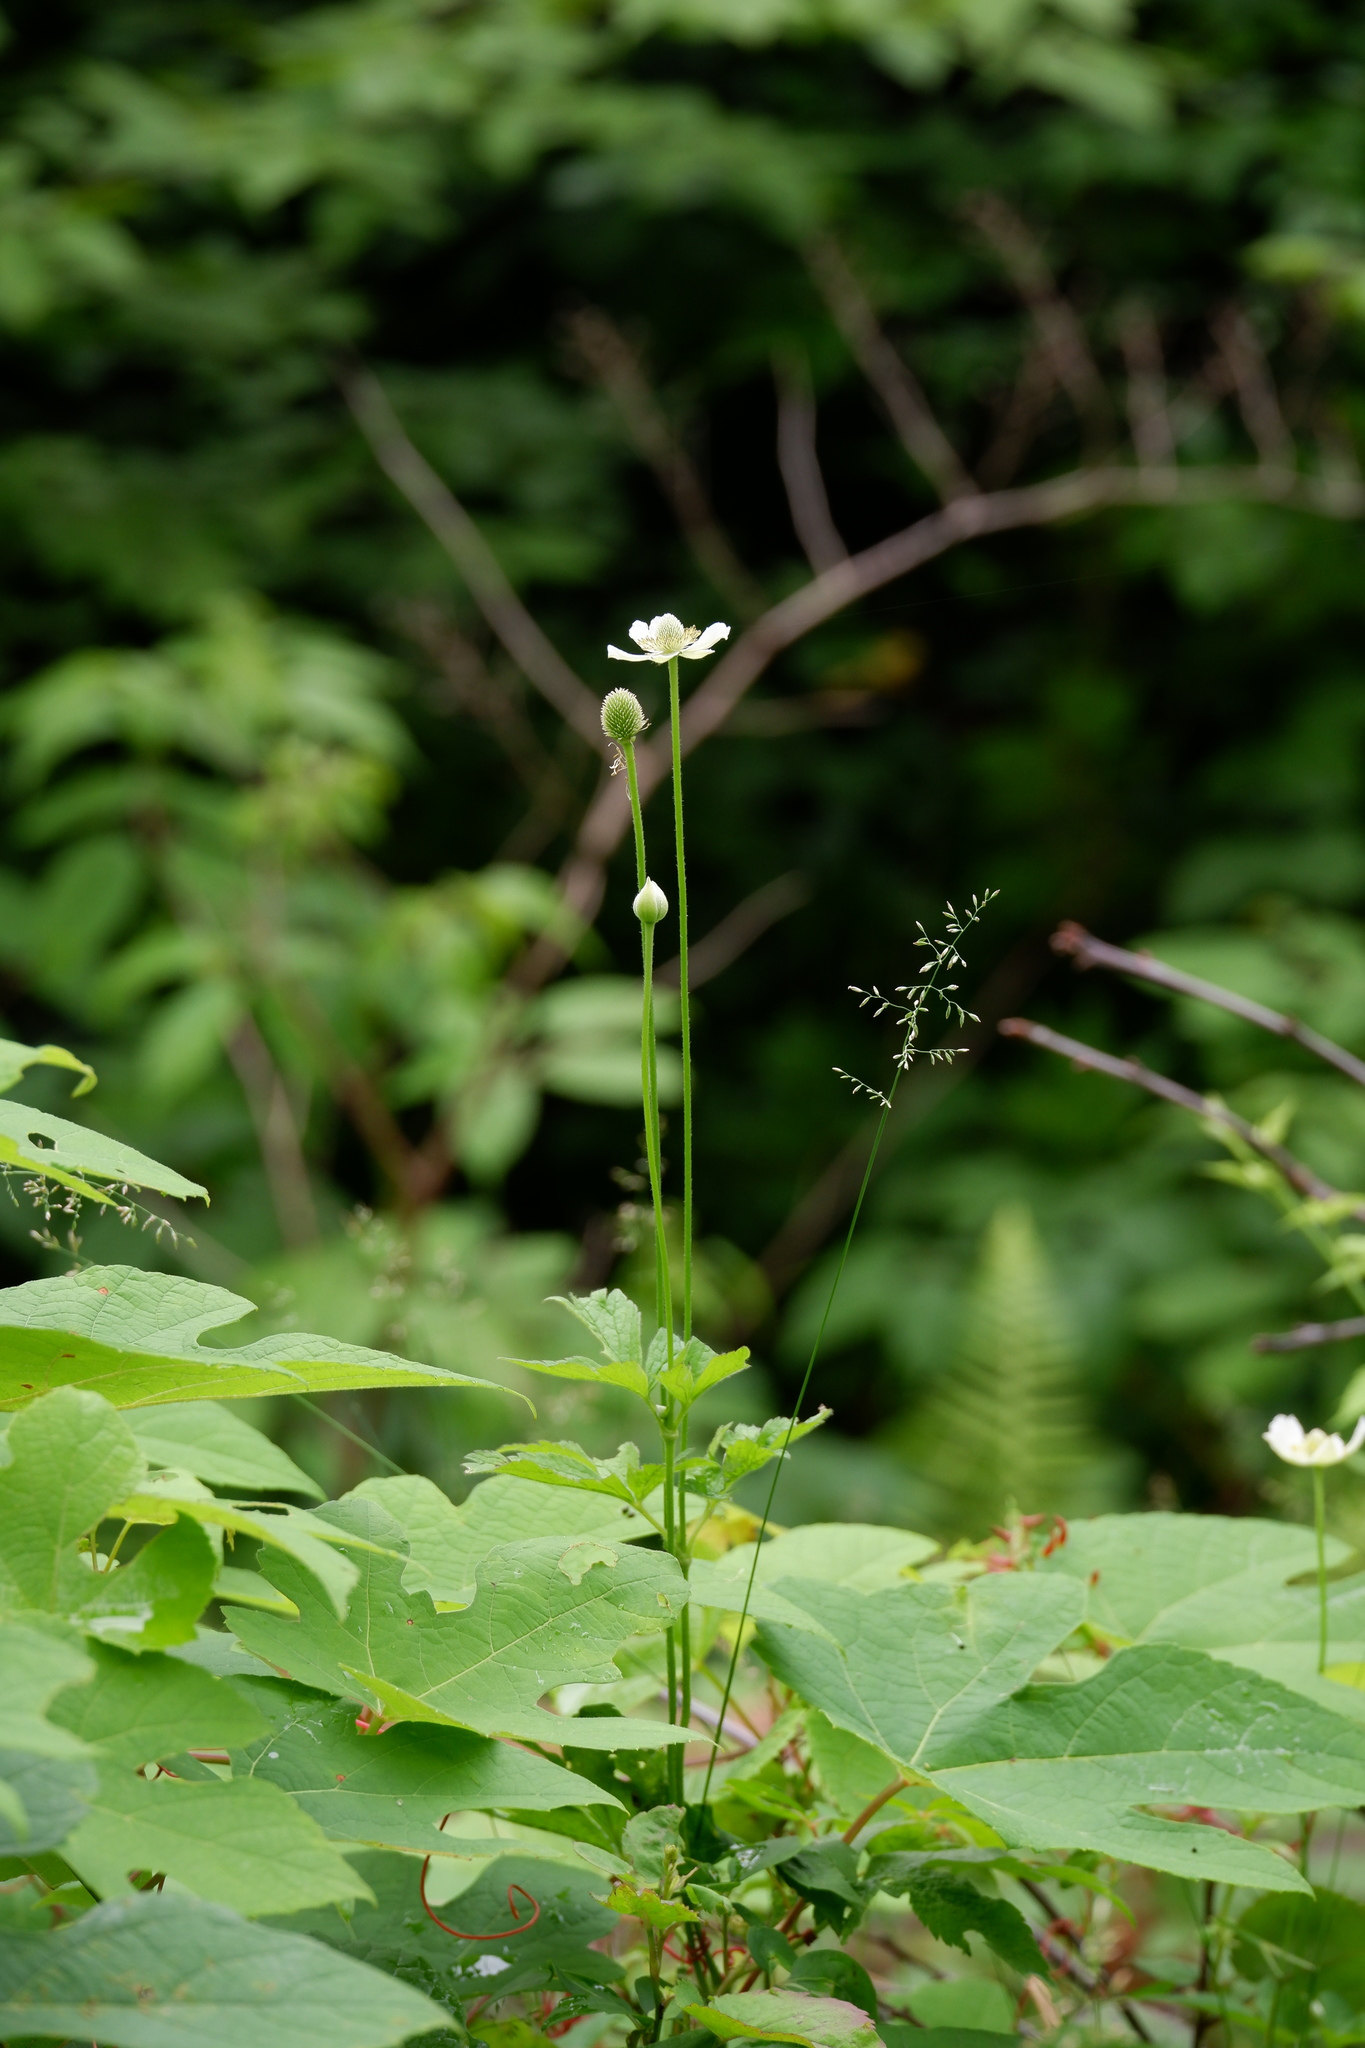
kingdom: Plantae
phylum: Tracheophyta
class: Magnoliopsida
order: Ranunculales
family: Ranunculaceae
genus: Anemone
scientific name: Anemone virginiana
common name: Tall anemone
